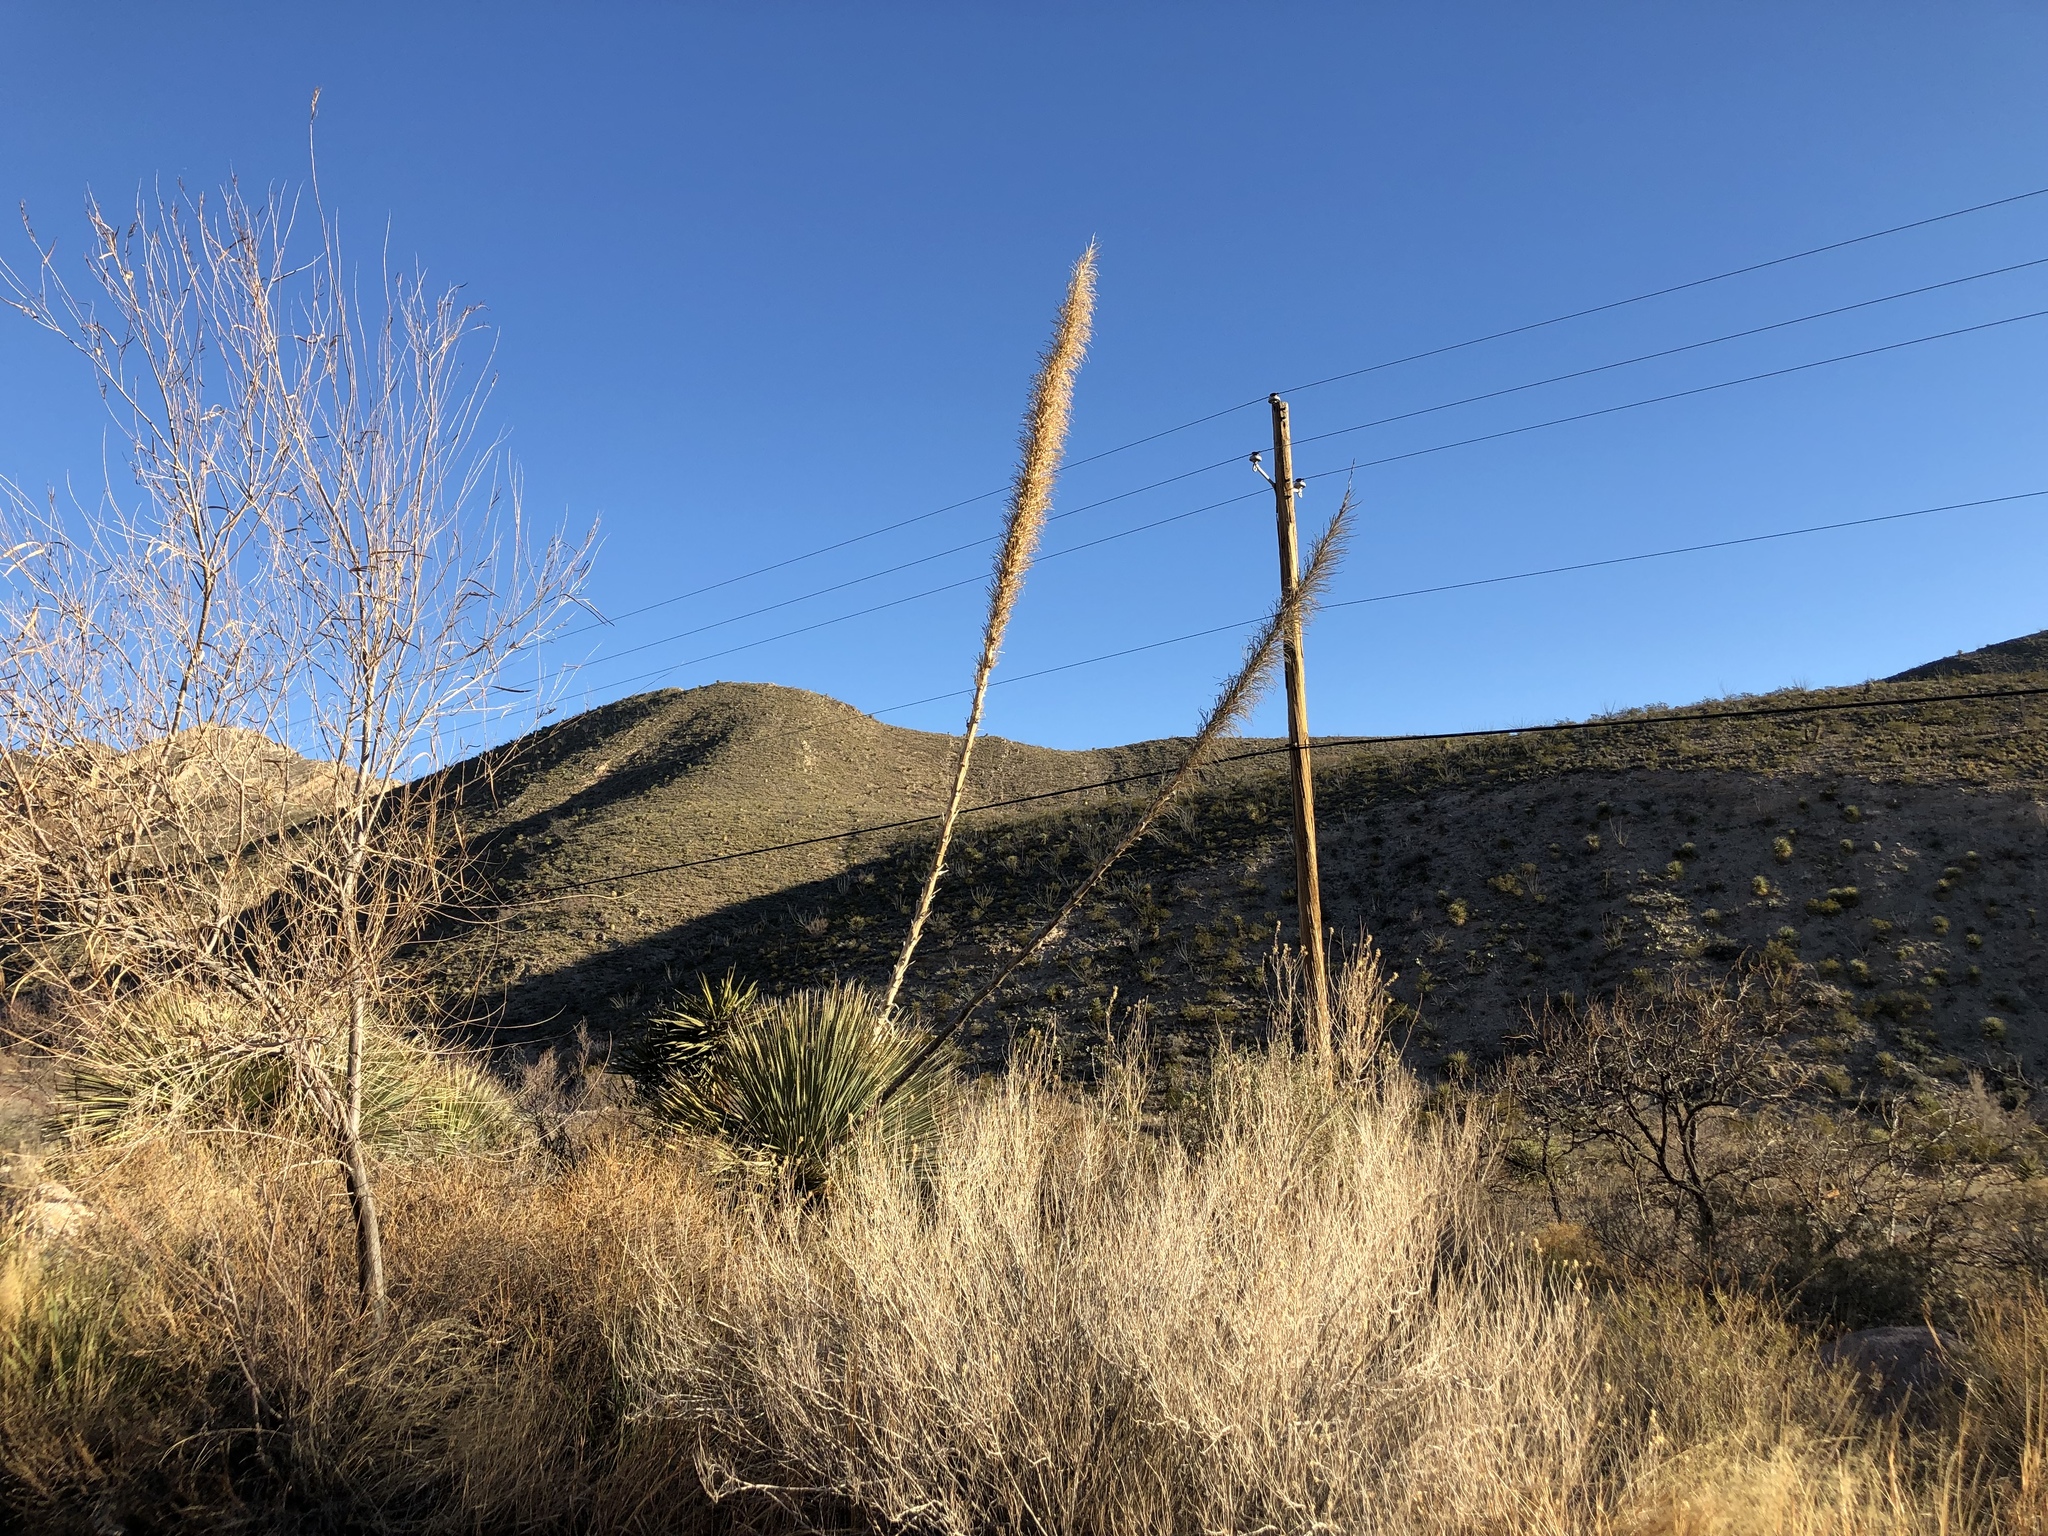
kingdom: Plantae
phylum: Tracheophyta
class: Liliopsida
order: Asparagales
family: Asparagaceae
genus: Dasylirion
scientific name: Dasylirion wheeleri
